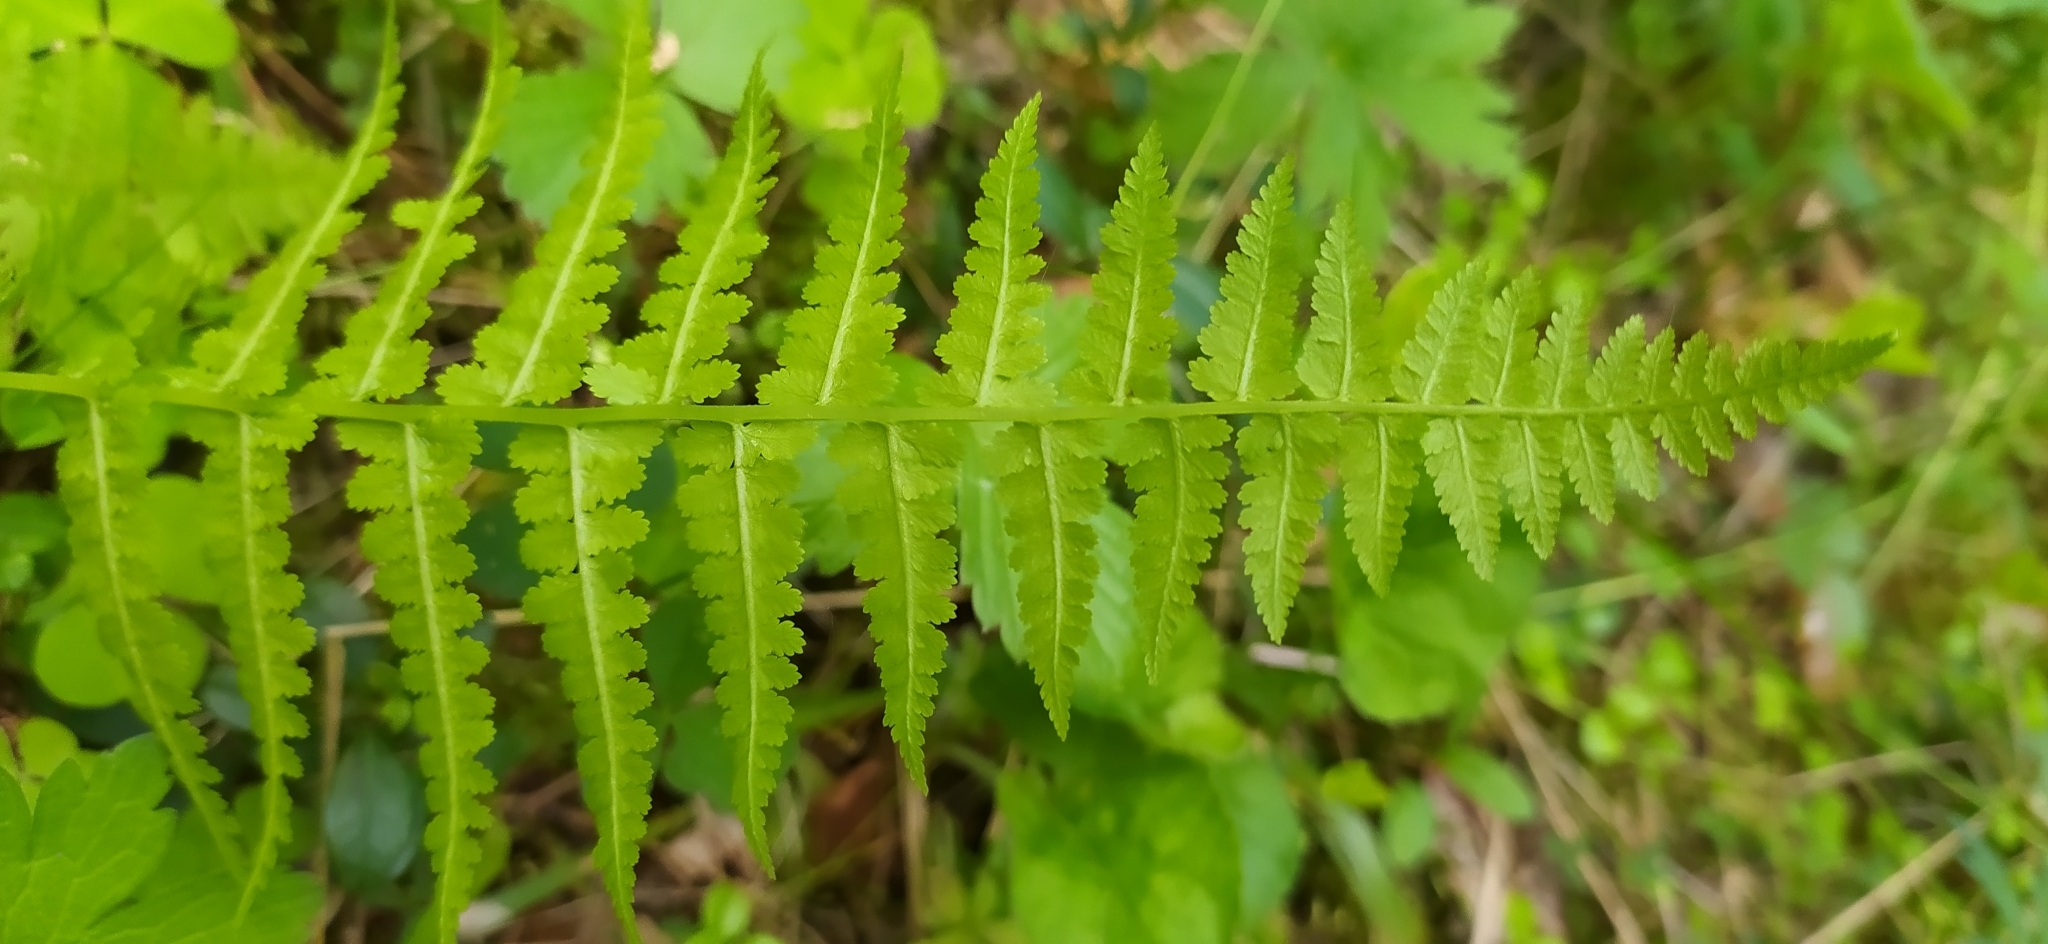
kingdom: Plantae
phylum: Tracheophyta
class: Polypodiopsida
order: Polypodiales
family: Athyriaceae
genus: Athyrium
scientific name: Athyrium filix-femina
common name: Lady fern
